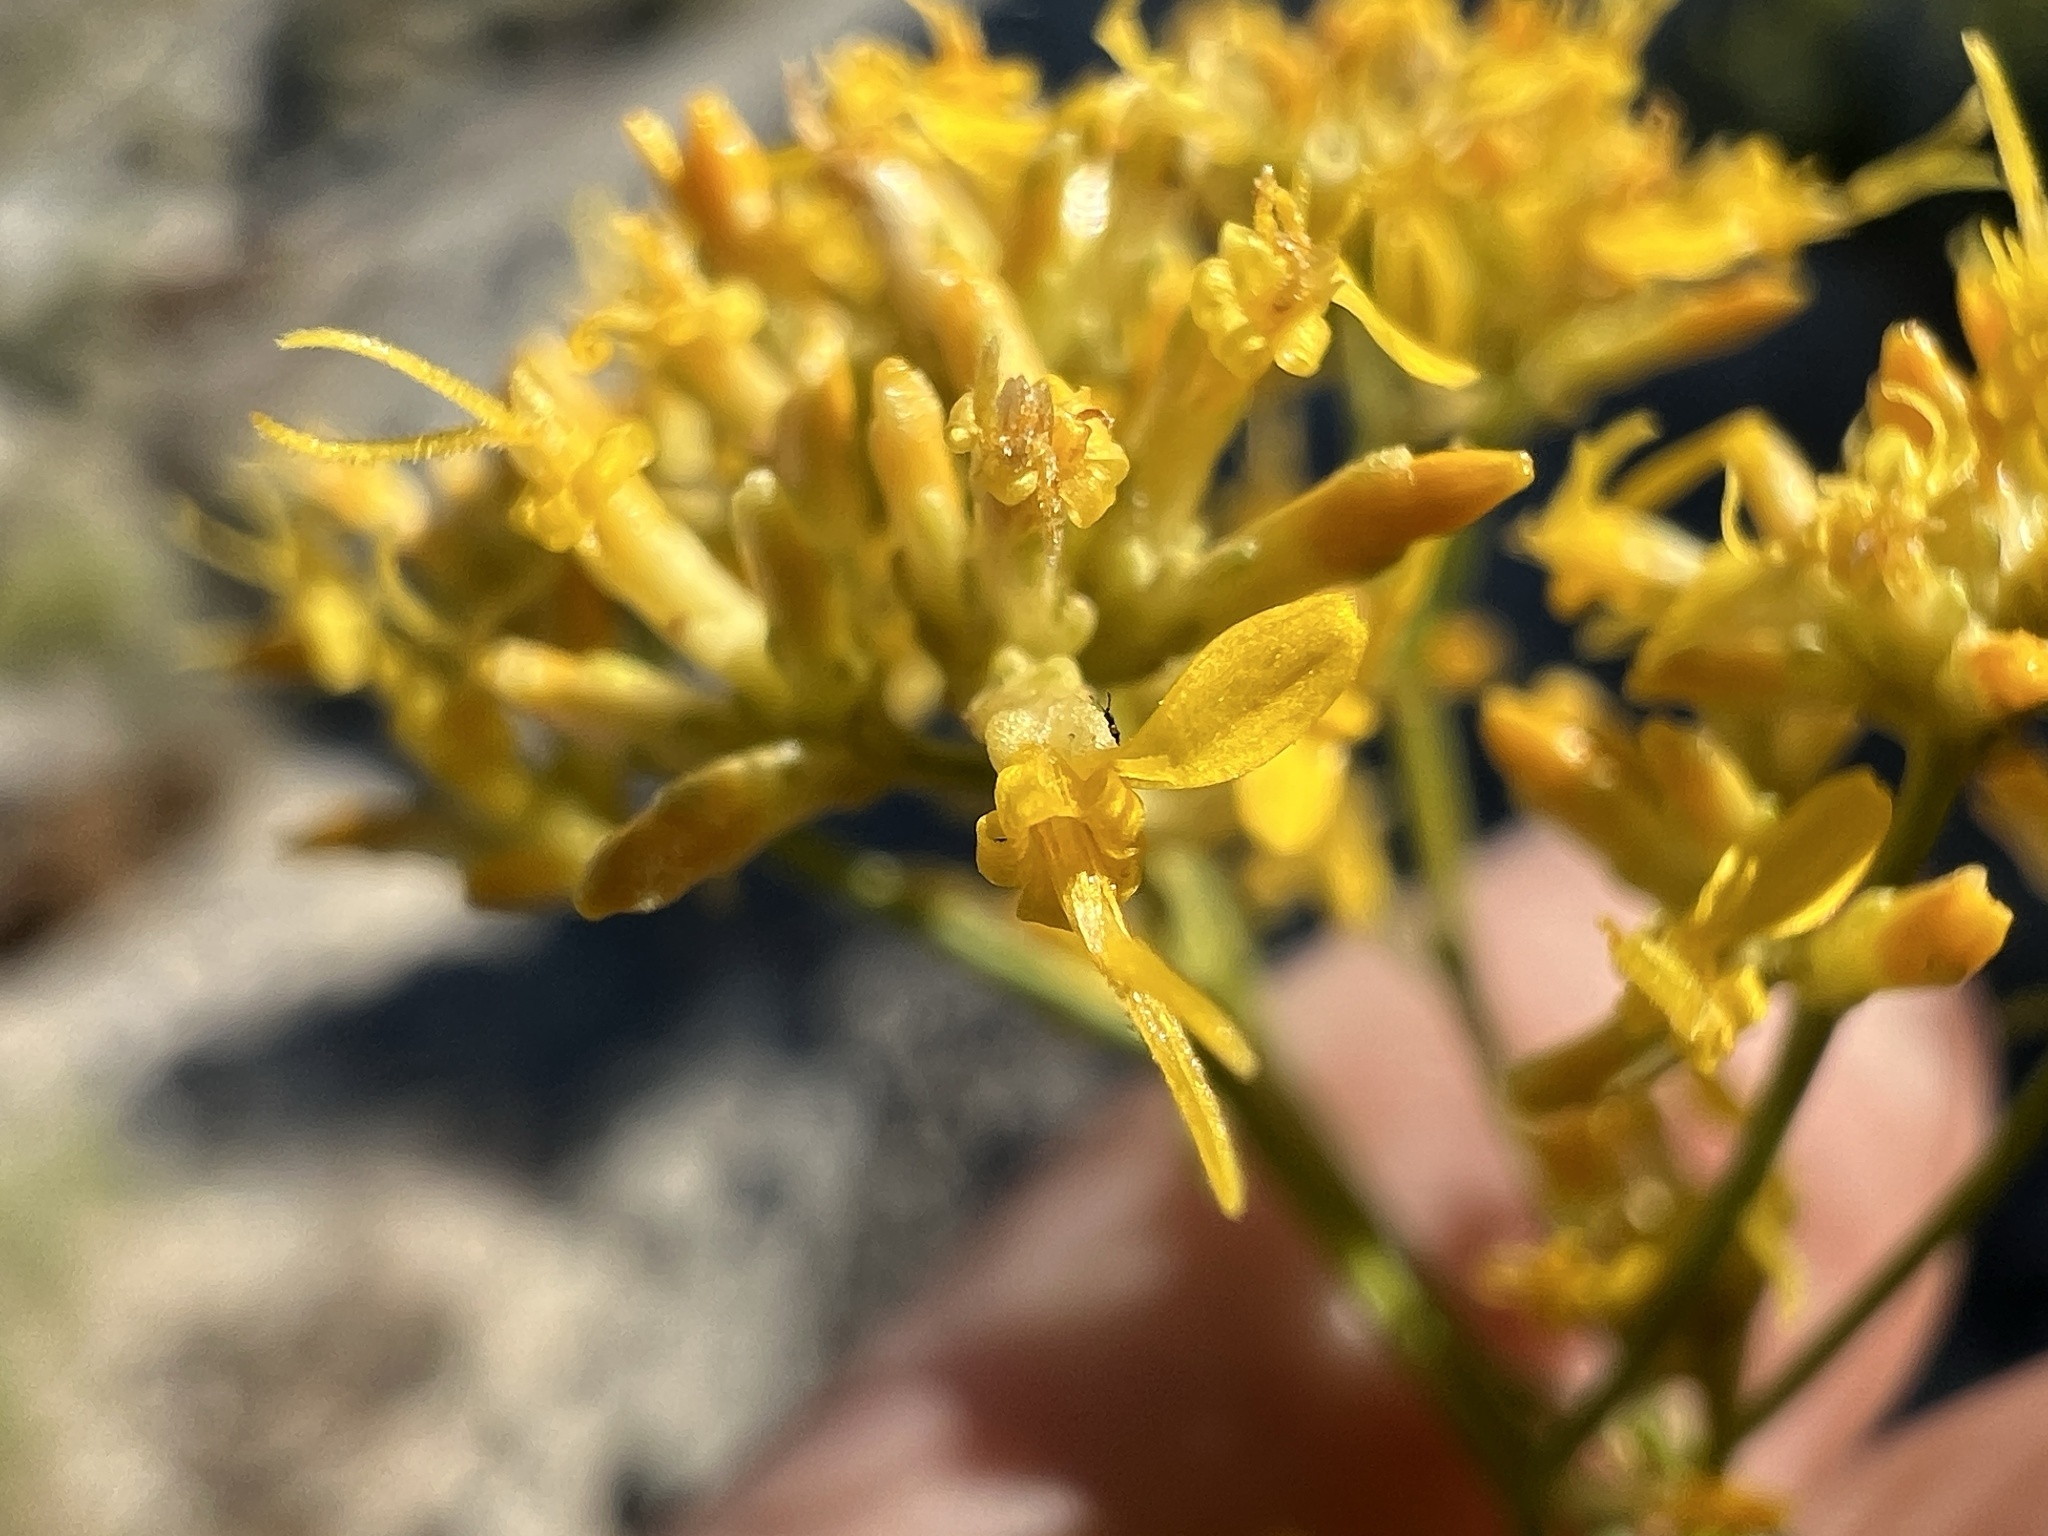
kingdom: Plantae
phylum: Tracheophyta
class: Magnoliopsida
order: Asterales
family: Asteraceae
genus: Gutierrezia
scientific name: Gutierrezia microcephala
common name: Thread snakeweed
